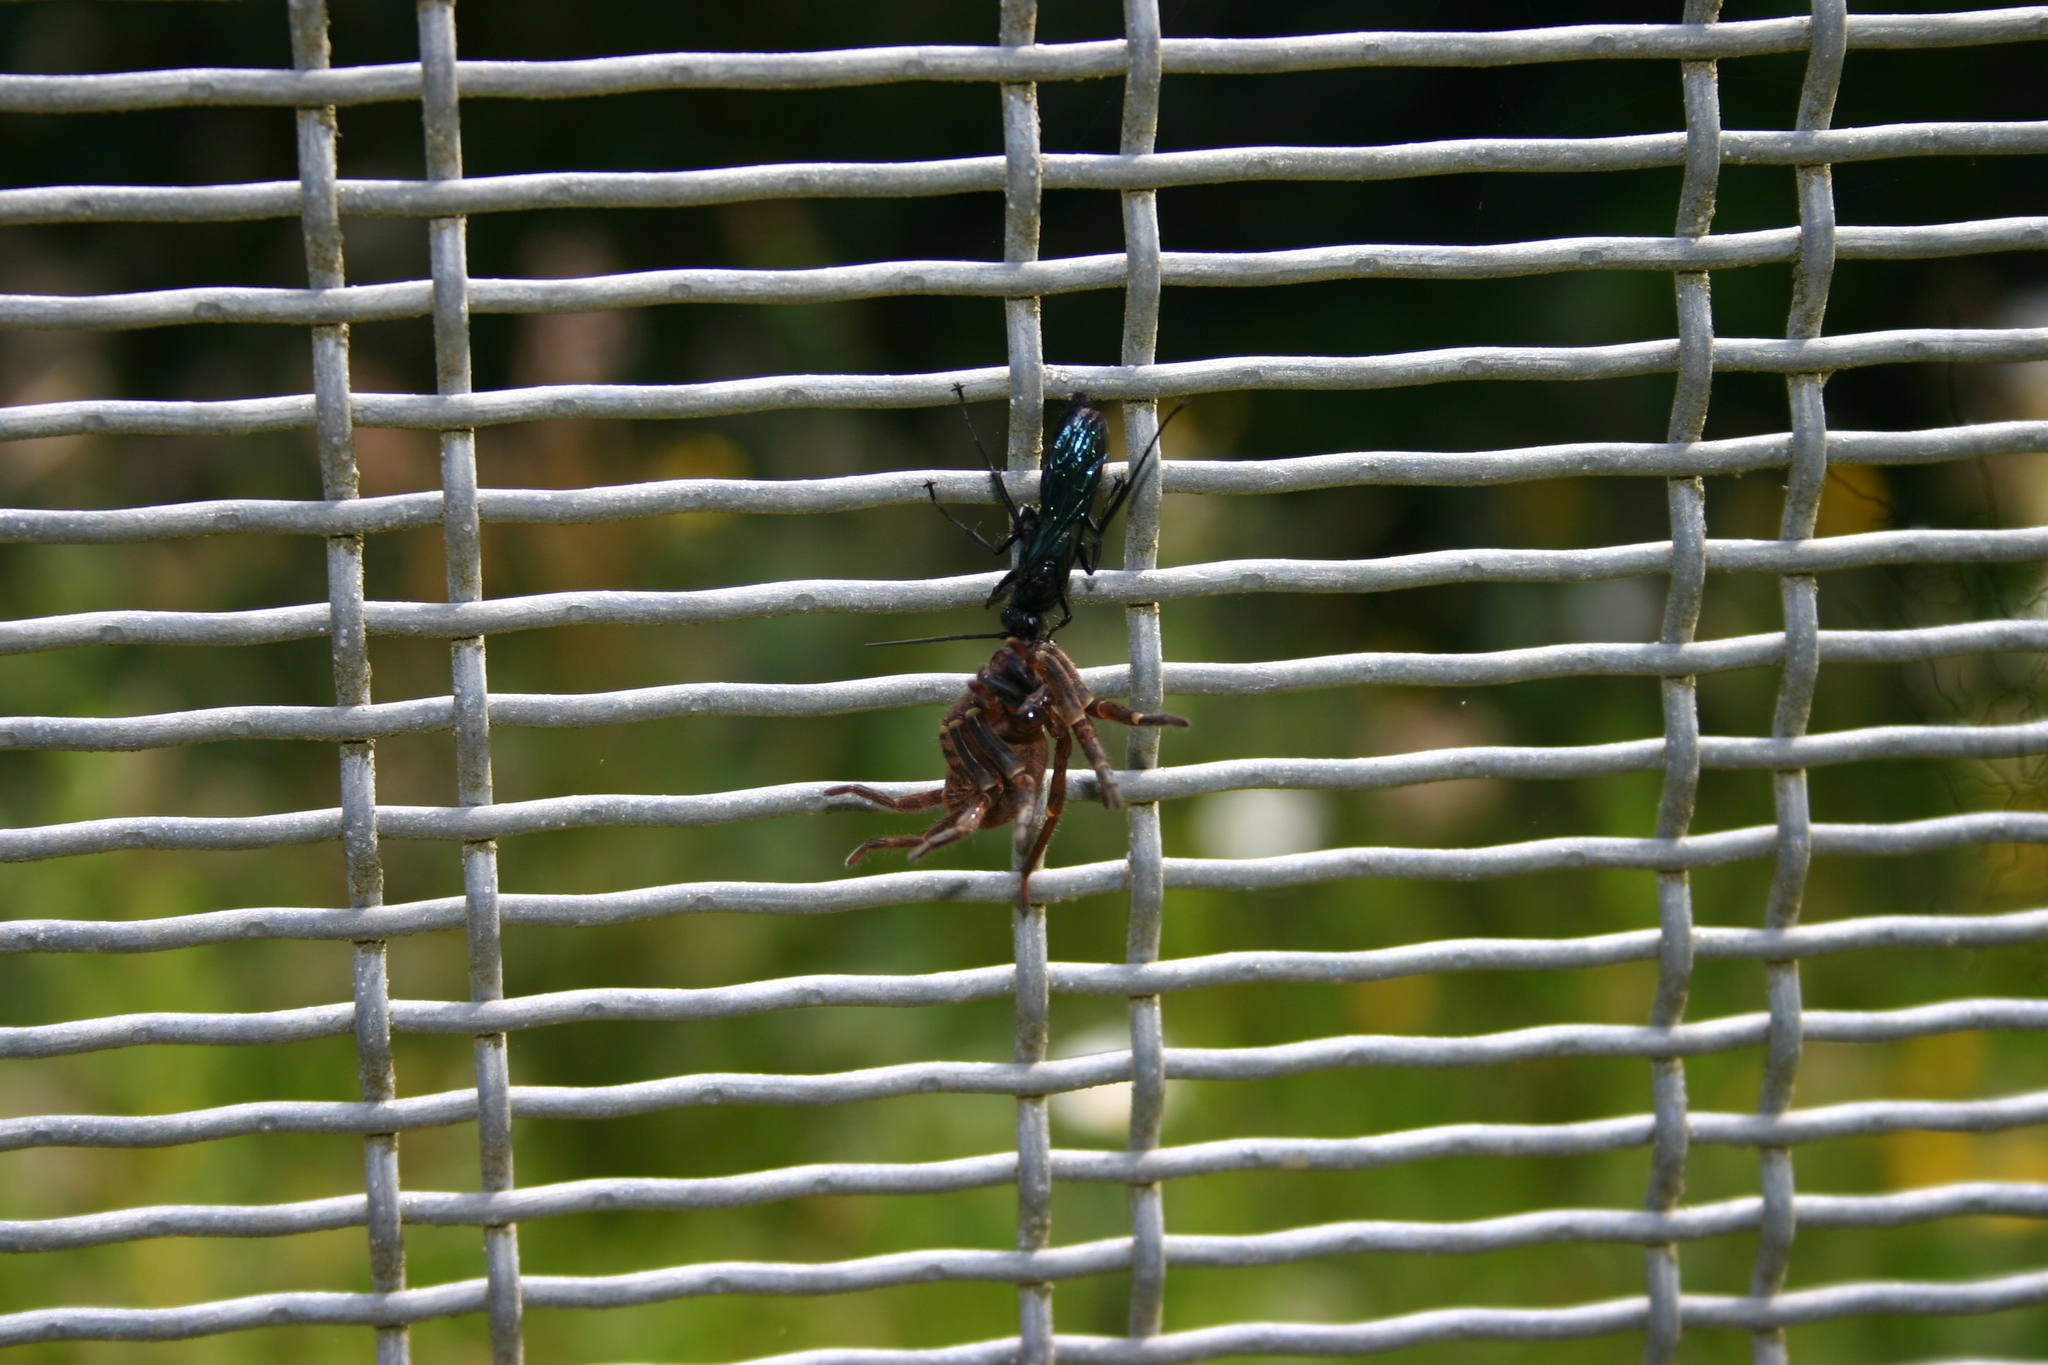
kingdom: Animalia
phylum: Arthropoda
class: Insecta
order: Hymenoptera
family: Pompilidae
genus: Priocnemis
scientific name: Priocnemis monachus
